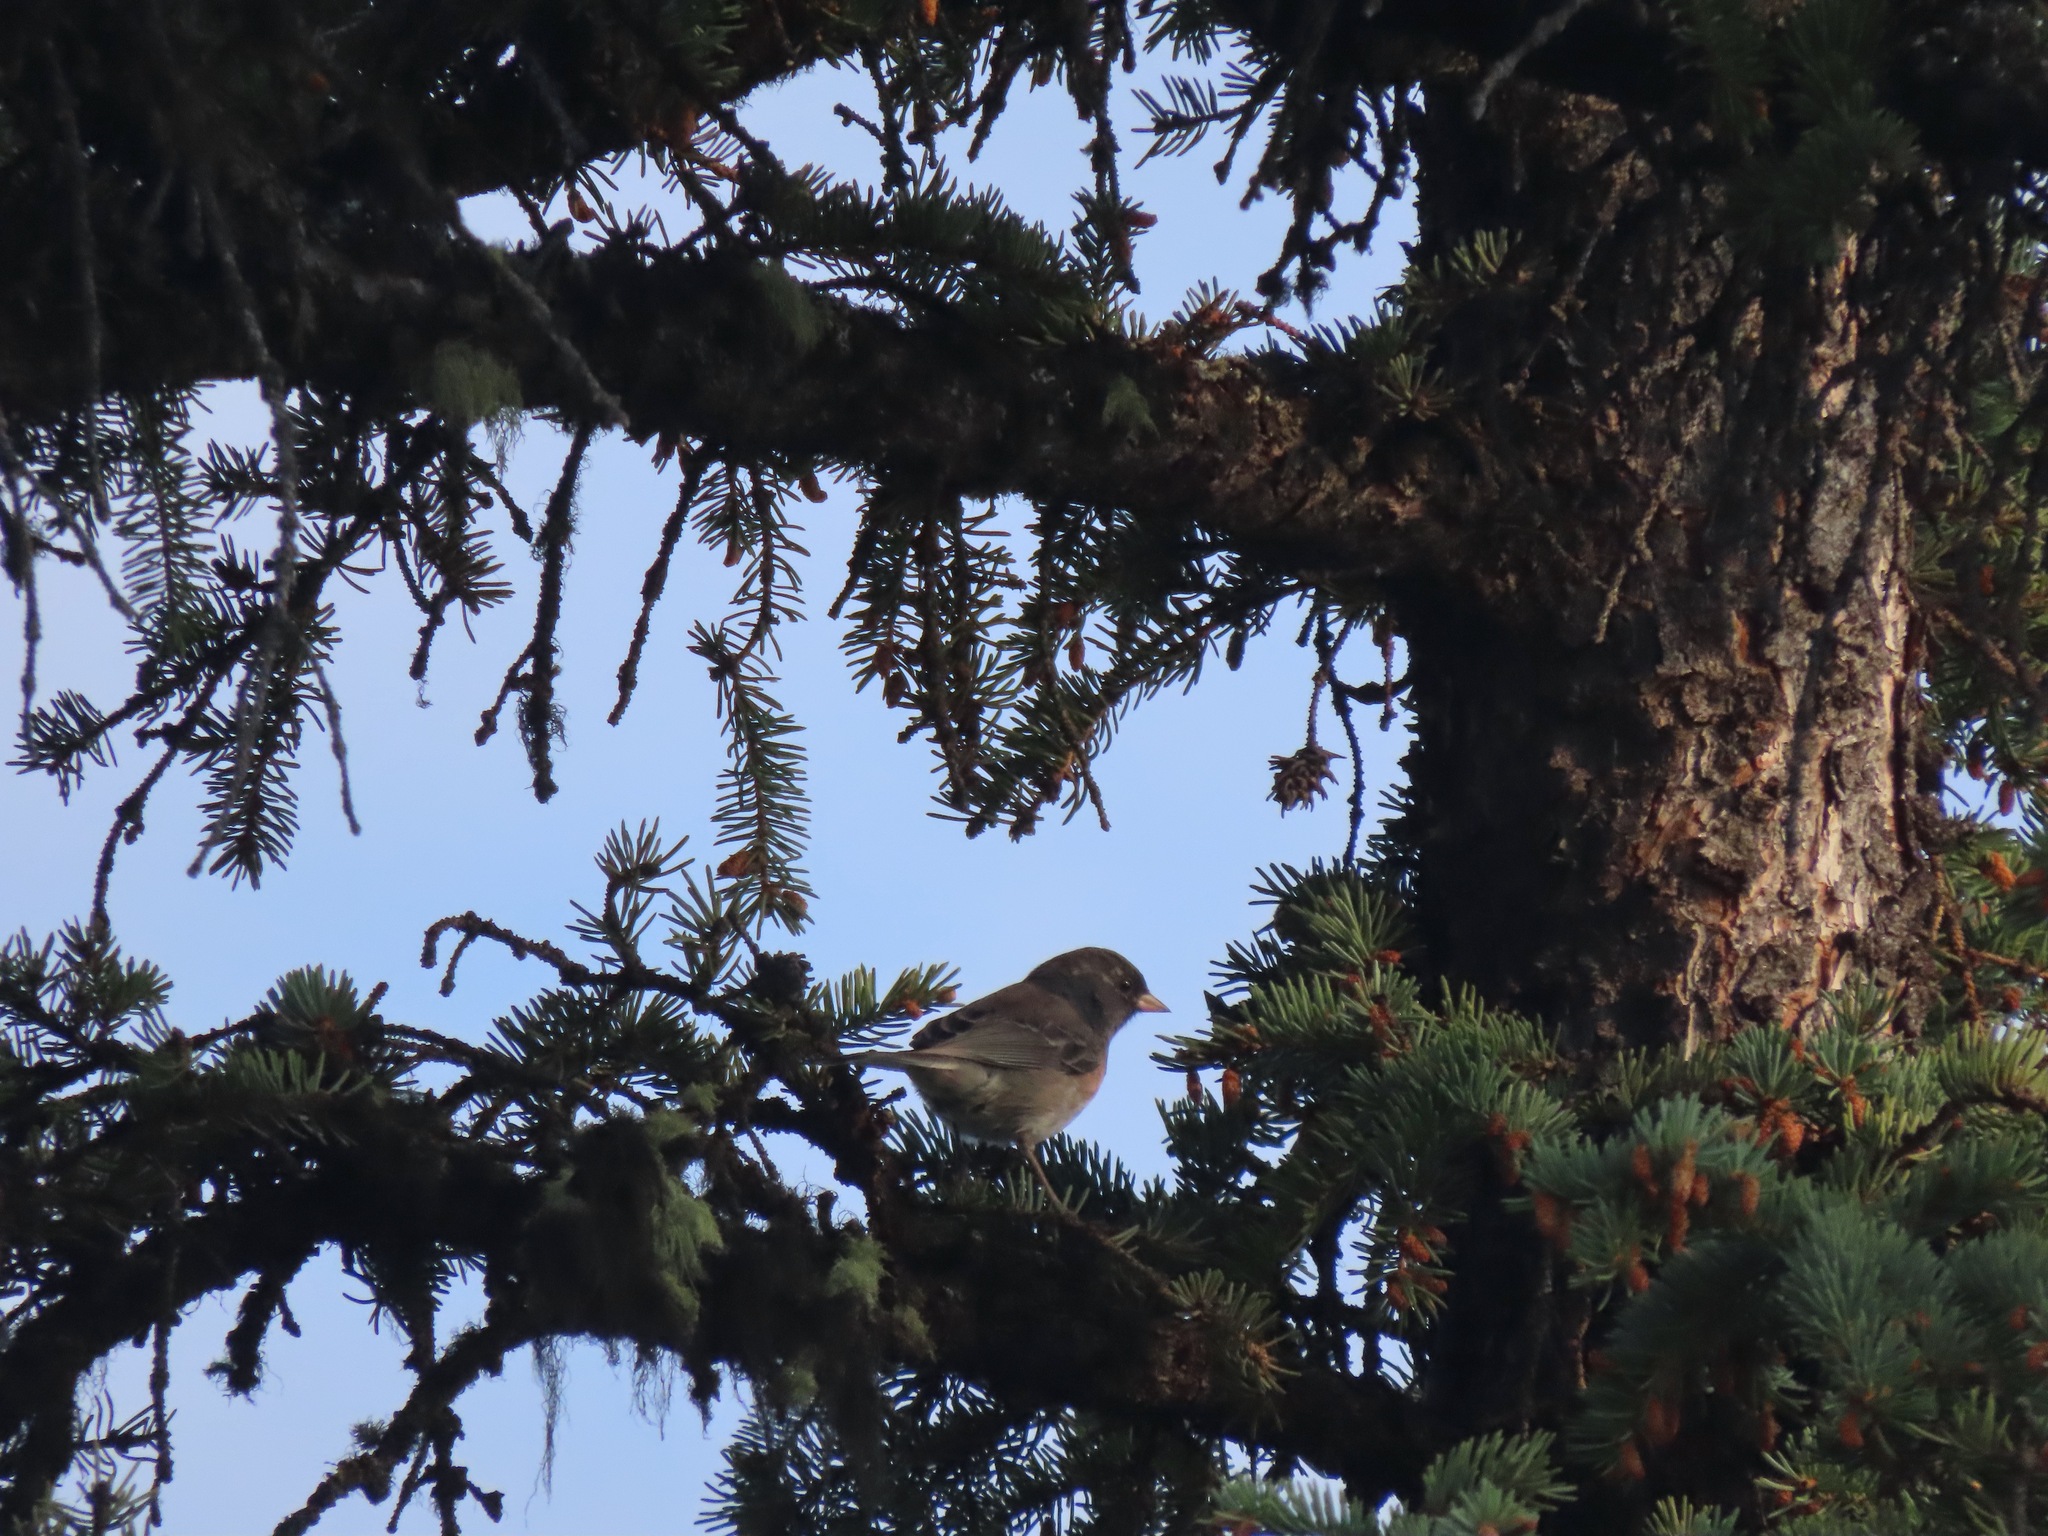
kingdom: Animalia
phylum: Chordata
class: Aves
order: Passeriformes
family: Passerellidae
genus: Junco
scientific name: Junco hyemalis
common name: Dark-eyed junco
